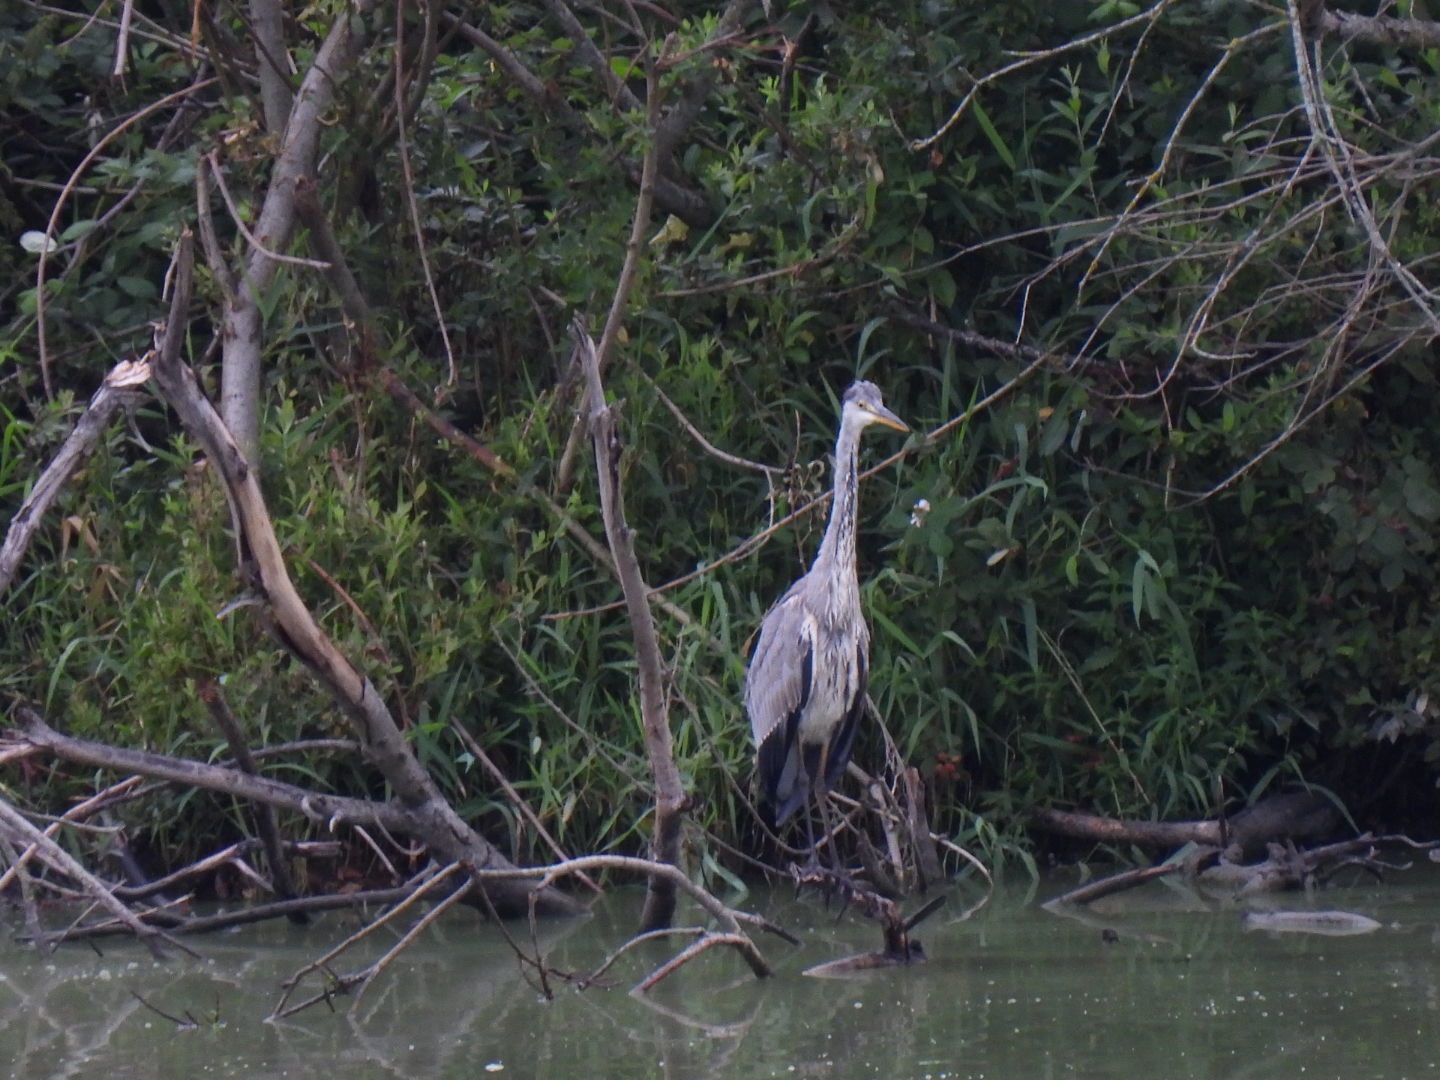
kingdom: Animalia
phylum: Chordata
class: Aves
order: Pelecaniformes
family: Ardeidae
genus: Ardea
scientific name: Ardea cinerea
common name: Grey heron
